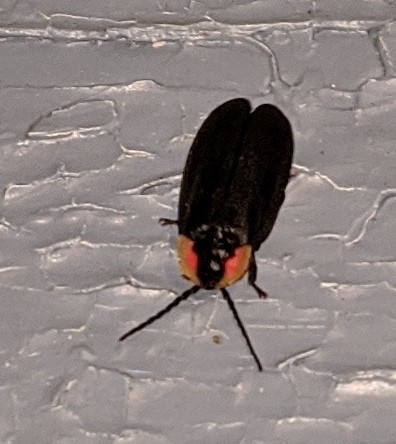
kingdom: Animalia
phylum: Arthropoda
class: Insecta
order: Coleoptera
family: Lampyridae
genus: Lucidota
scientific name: Lucidota atra
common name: Black firefly
